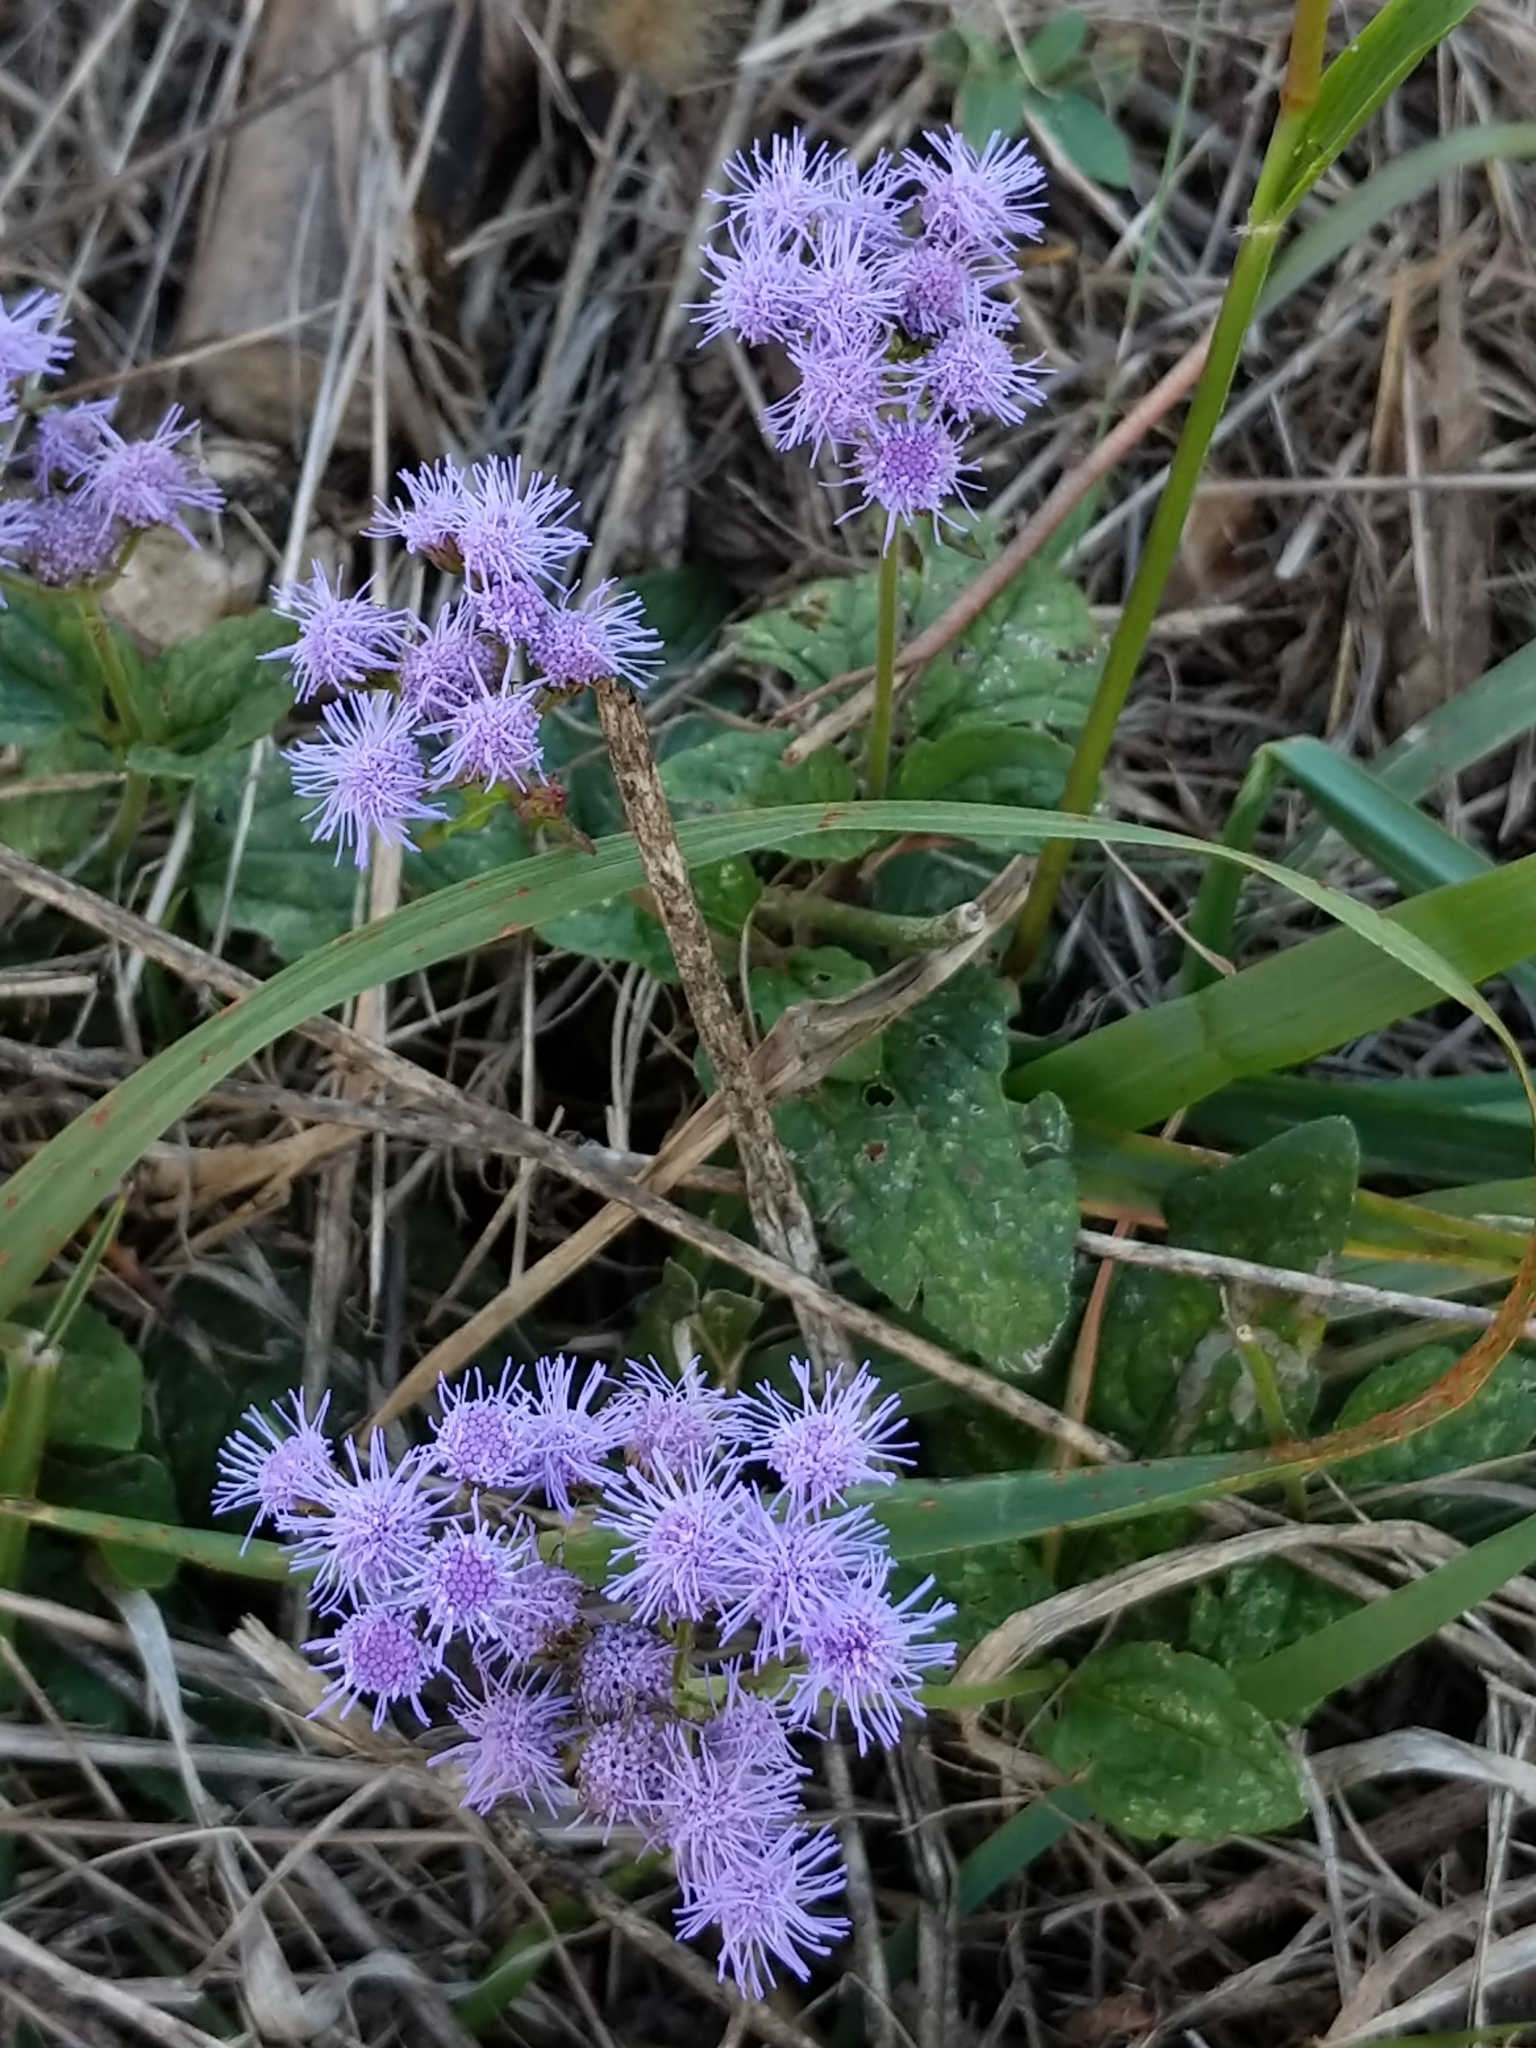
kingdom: Plantae
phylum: Tracheophyta
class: Magnoliopsida
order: Asterales
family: Asteraceae
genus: Conoclinium
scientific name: Conoclinium coelestinum
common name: Blue mistflower
